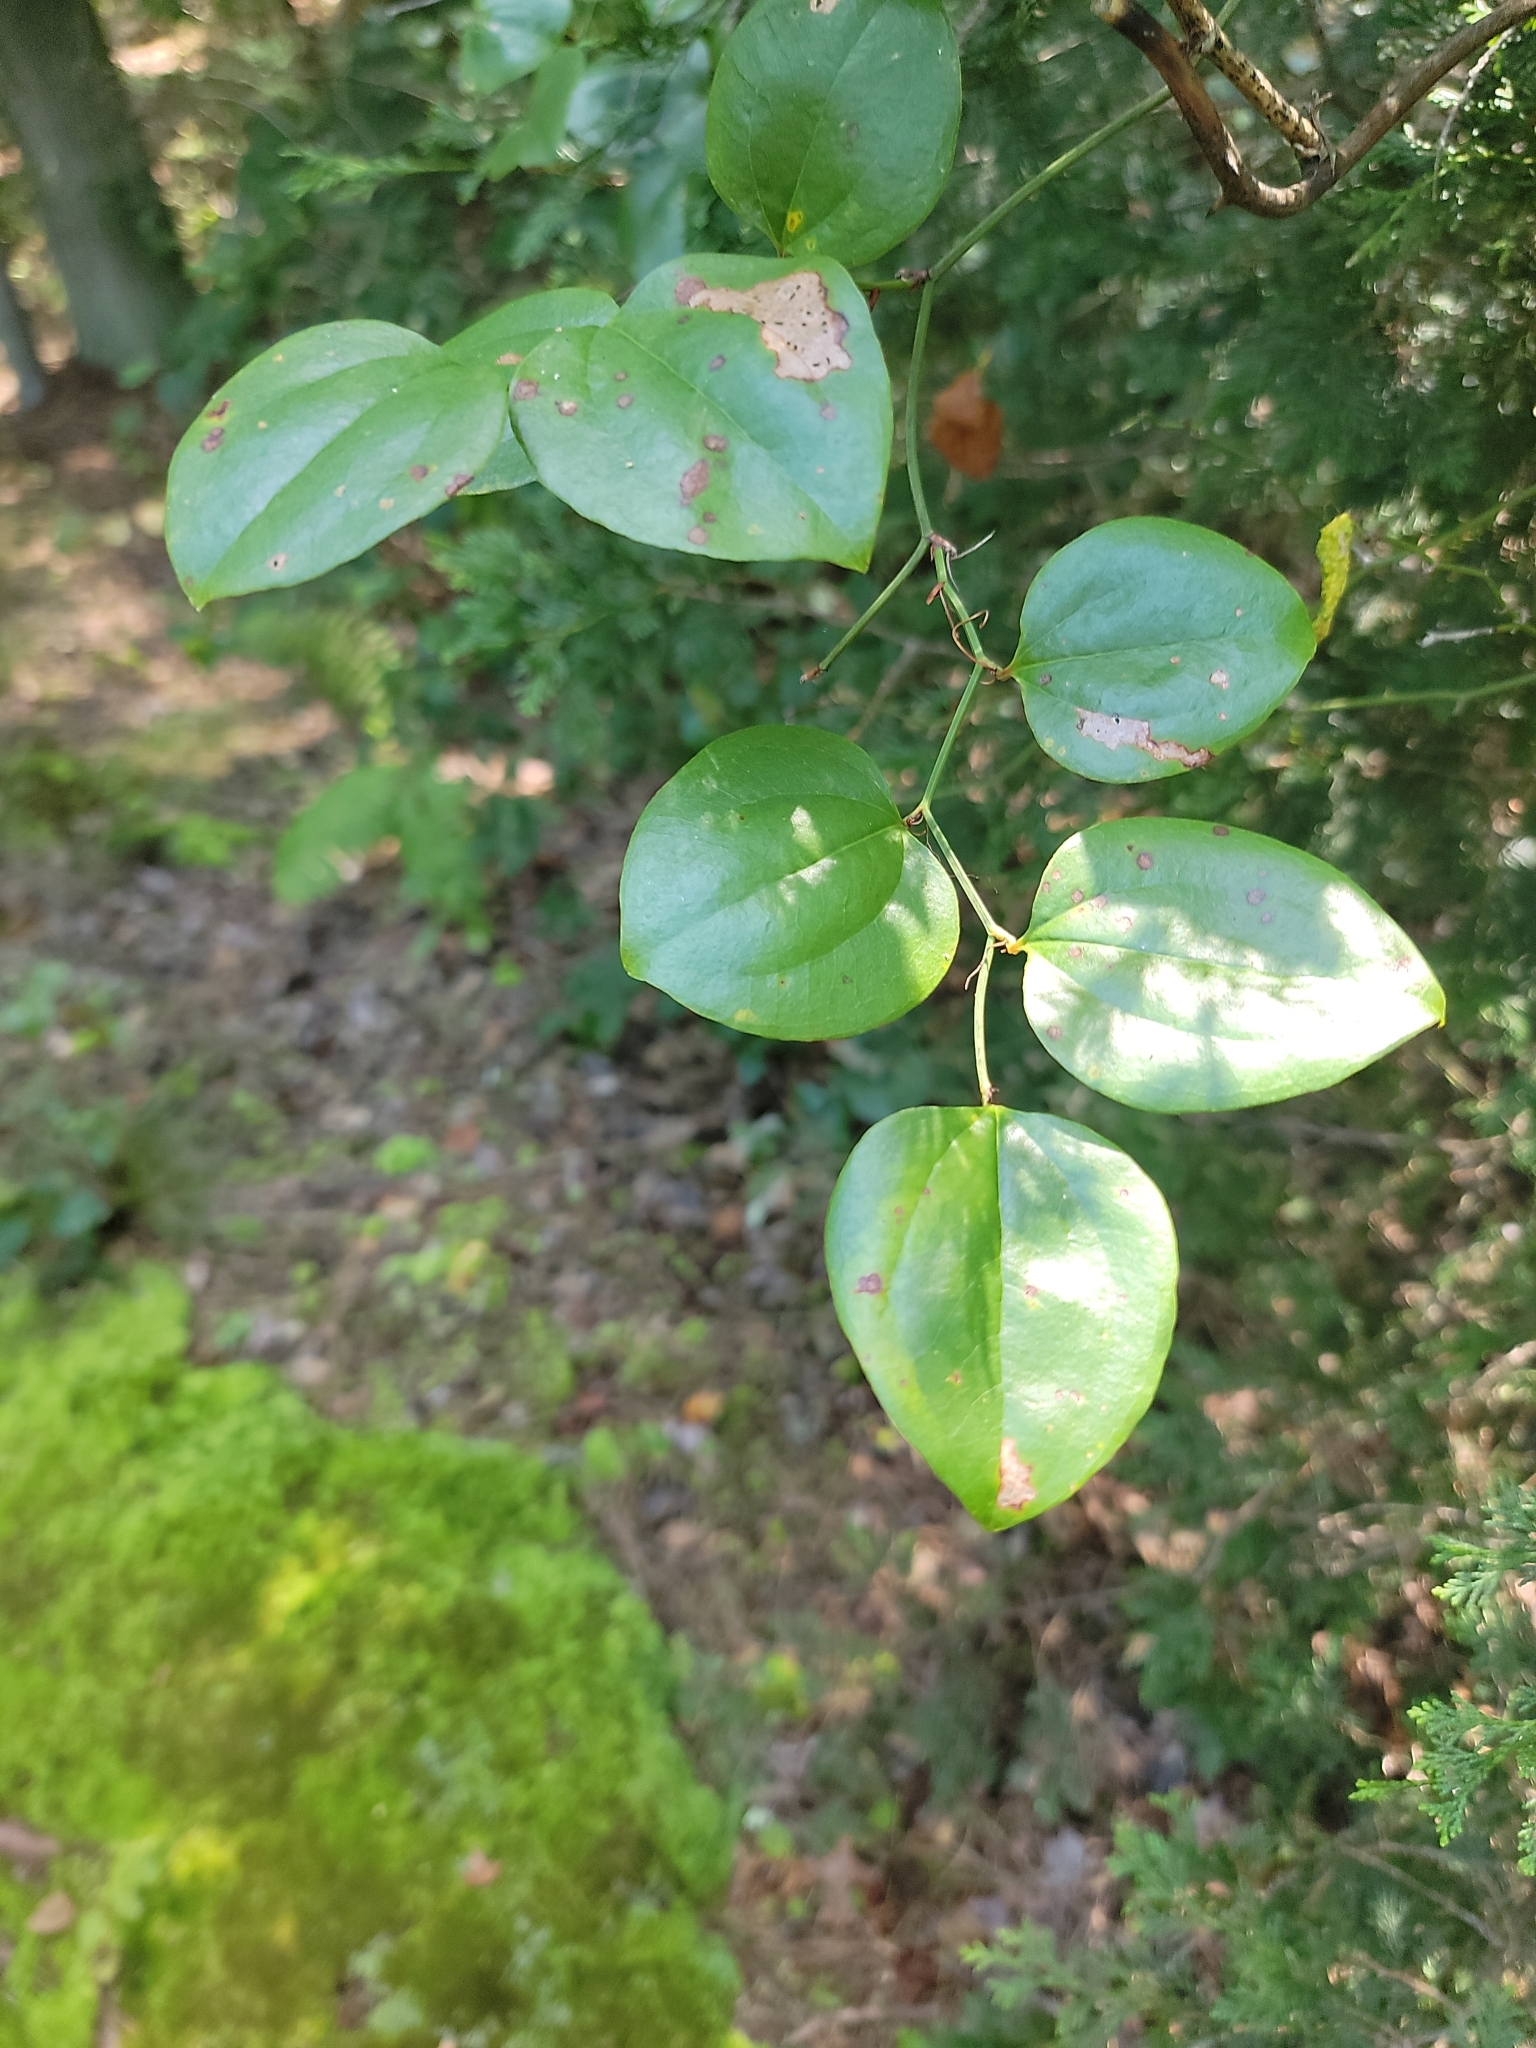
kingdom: Plantae
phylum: Tracheophyta
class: Liliopsida
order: Liliales
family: Smilacaceae
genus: Smilax
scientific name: Smilax rotundifolia
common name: Bullbriar
